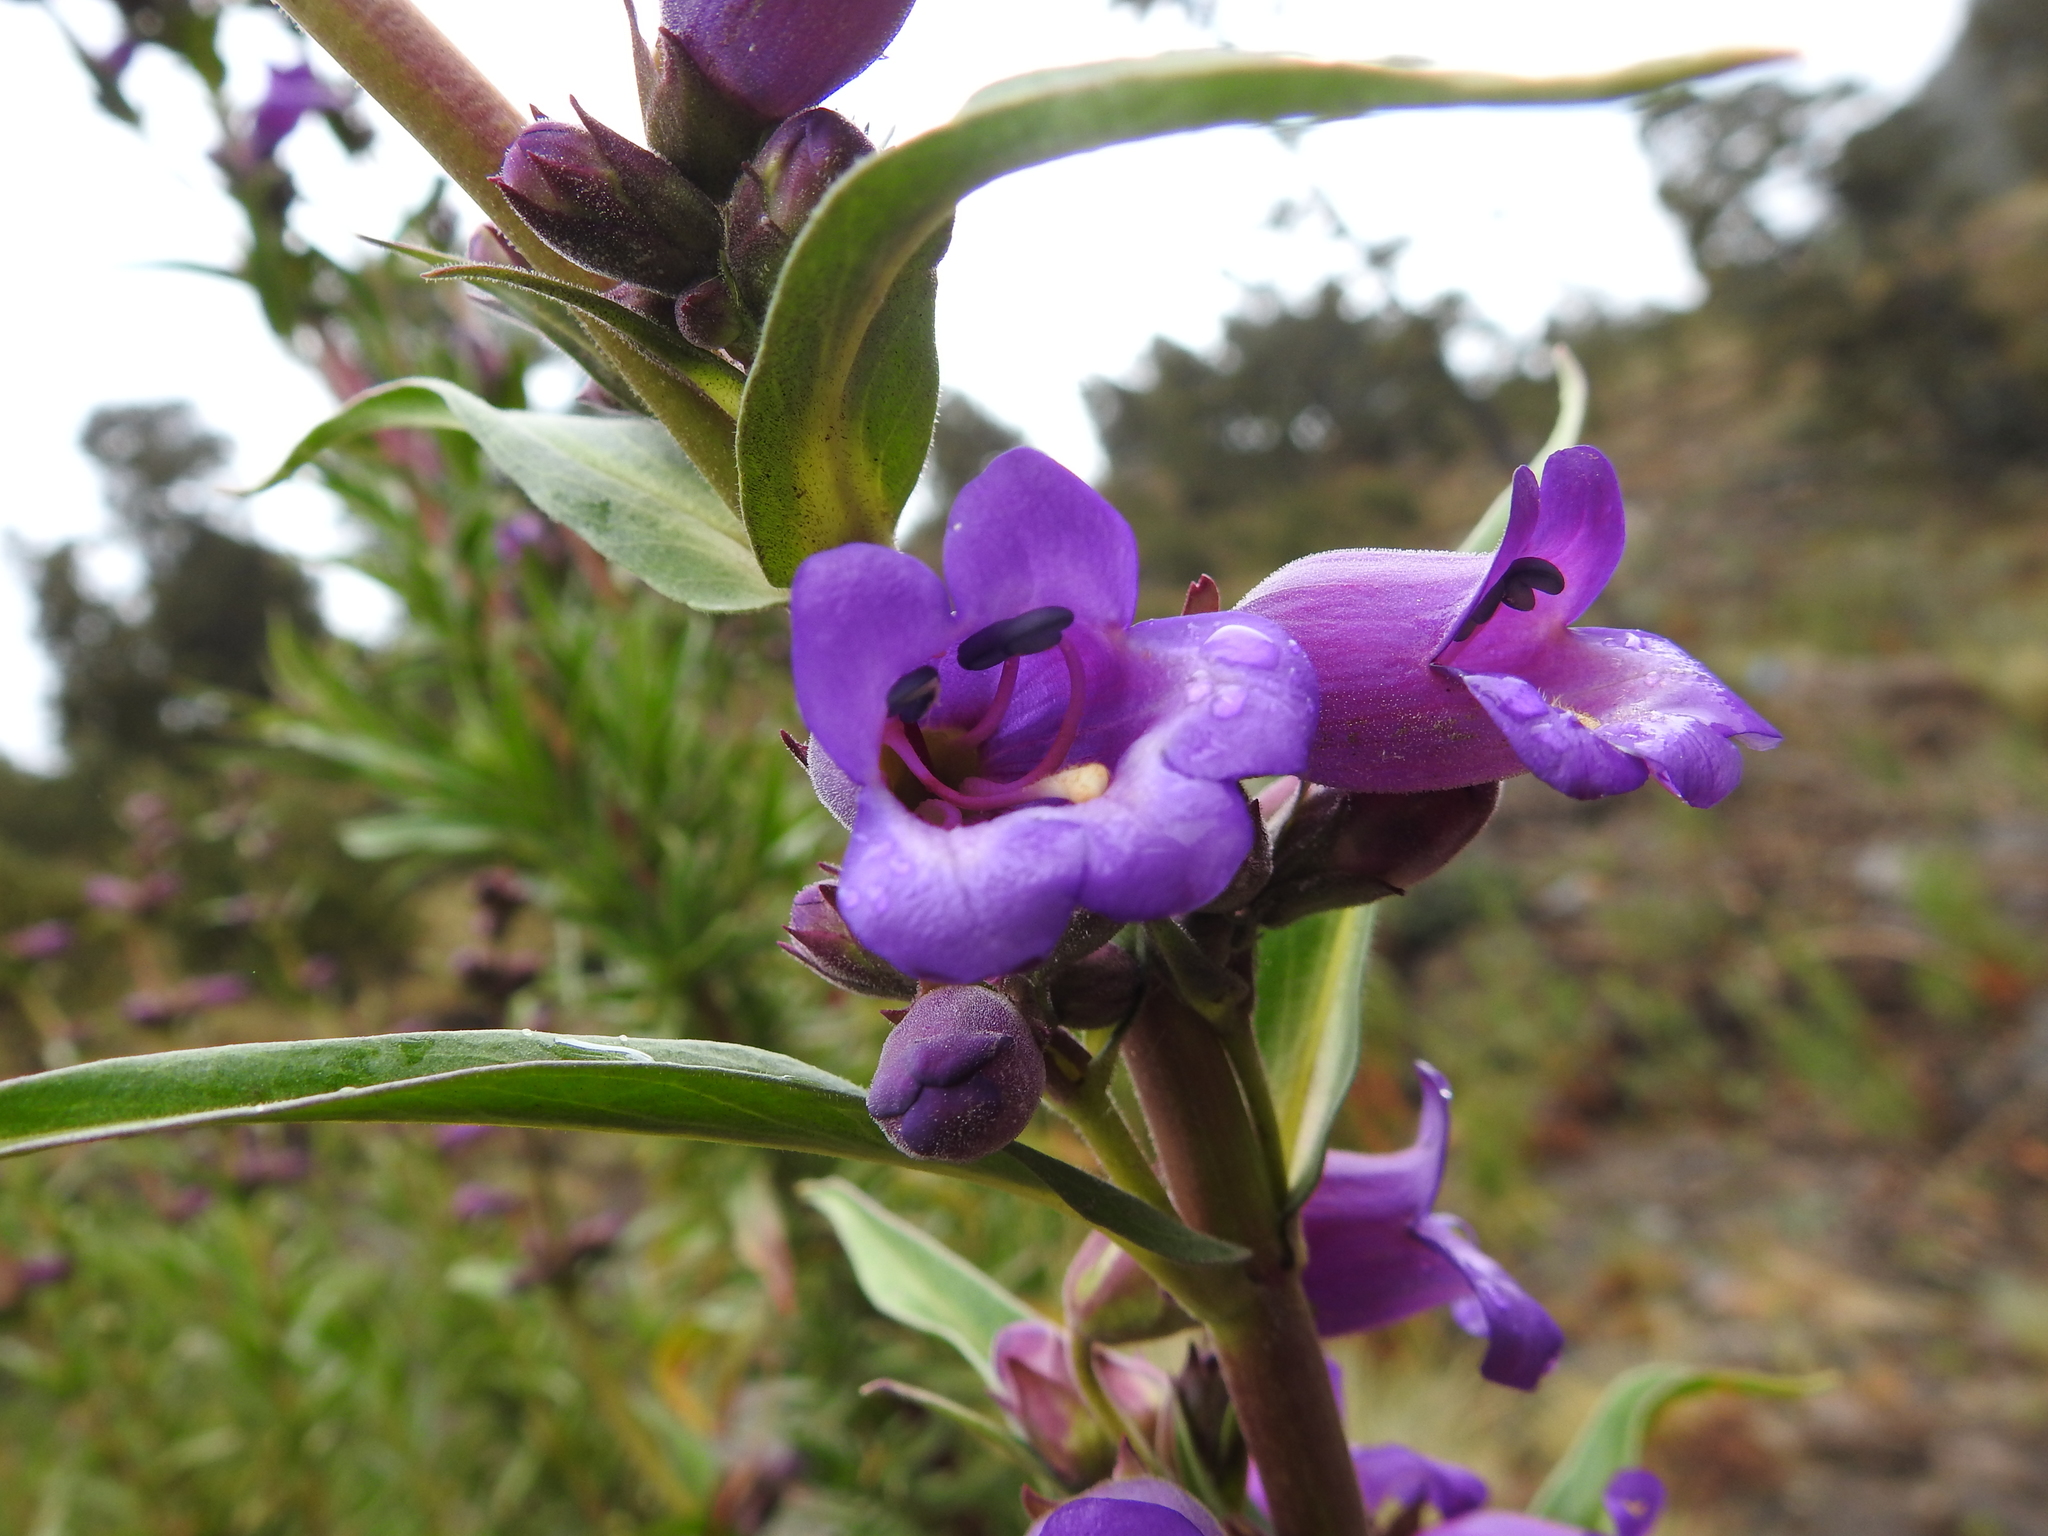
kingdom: Plantae
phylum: Tracheophyta
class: Magnoliopsida
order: Lamiales
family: Plantaginaceae
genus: Penstemon
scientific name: Penstemon gentianoides
